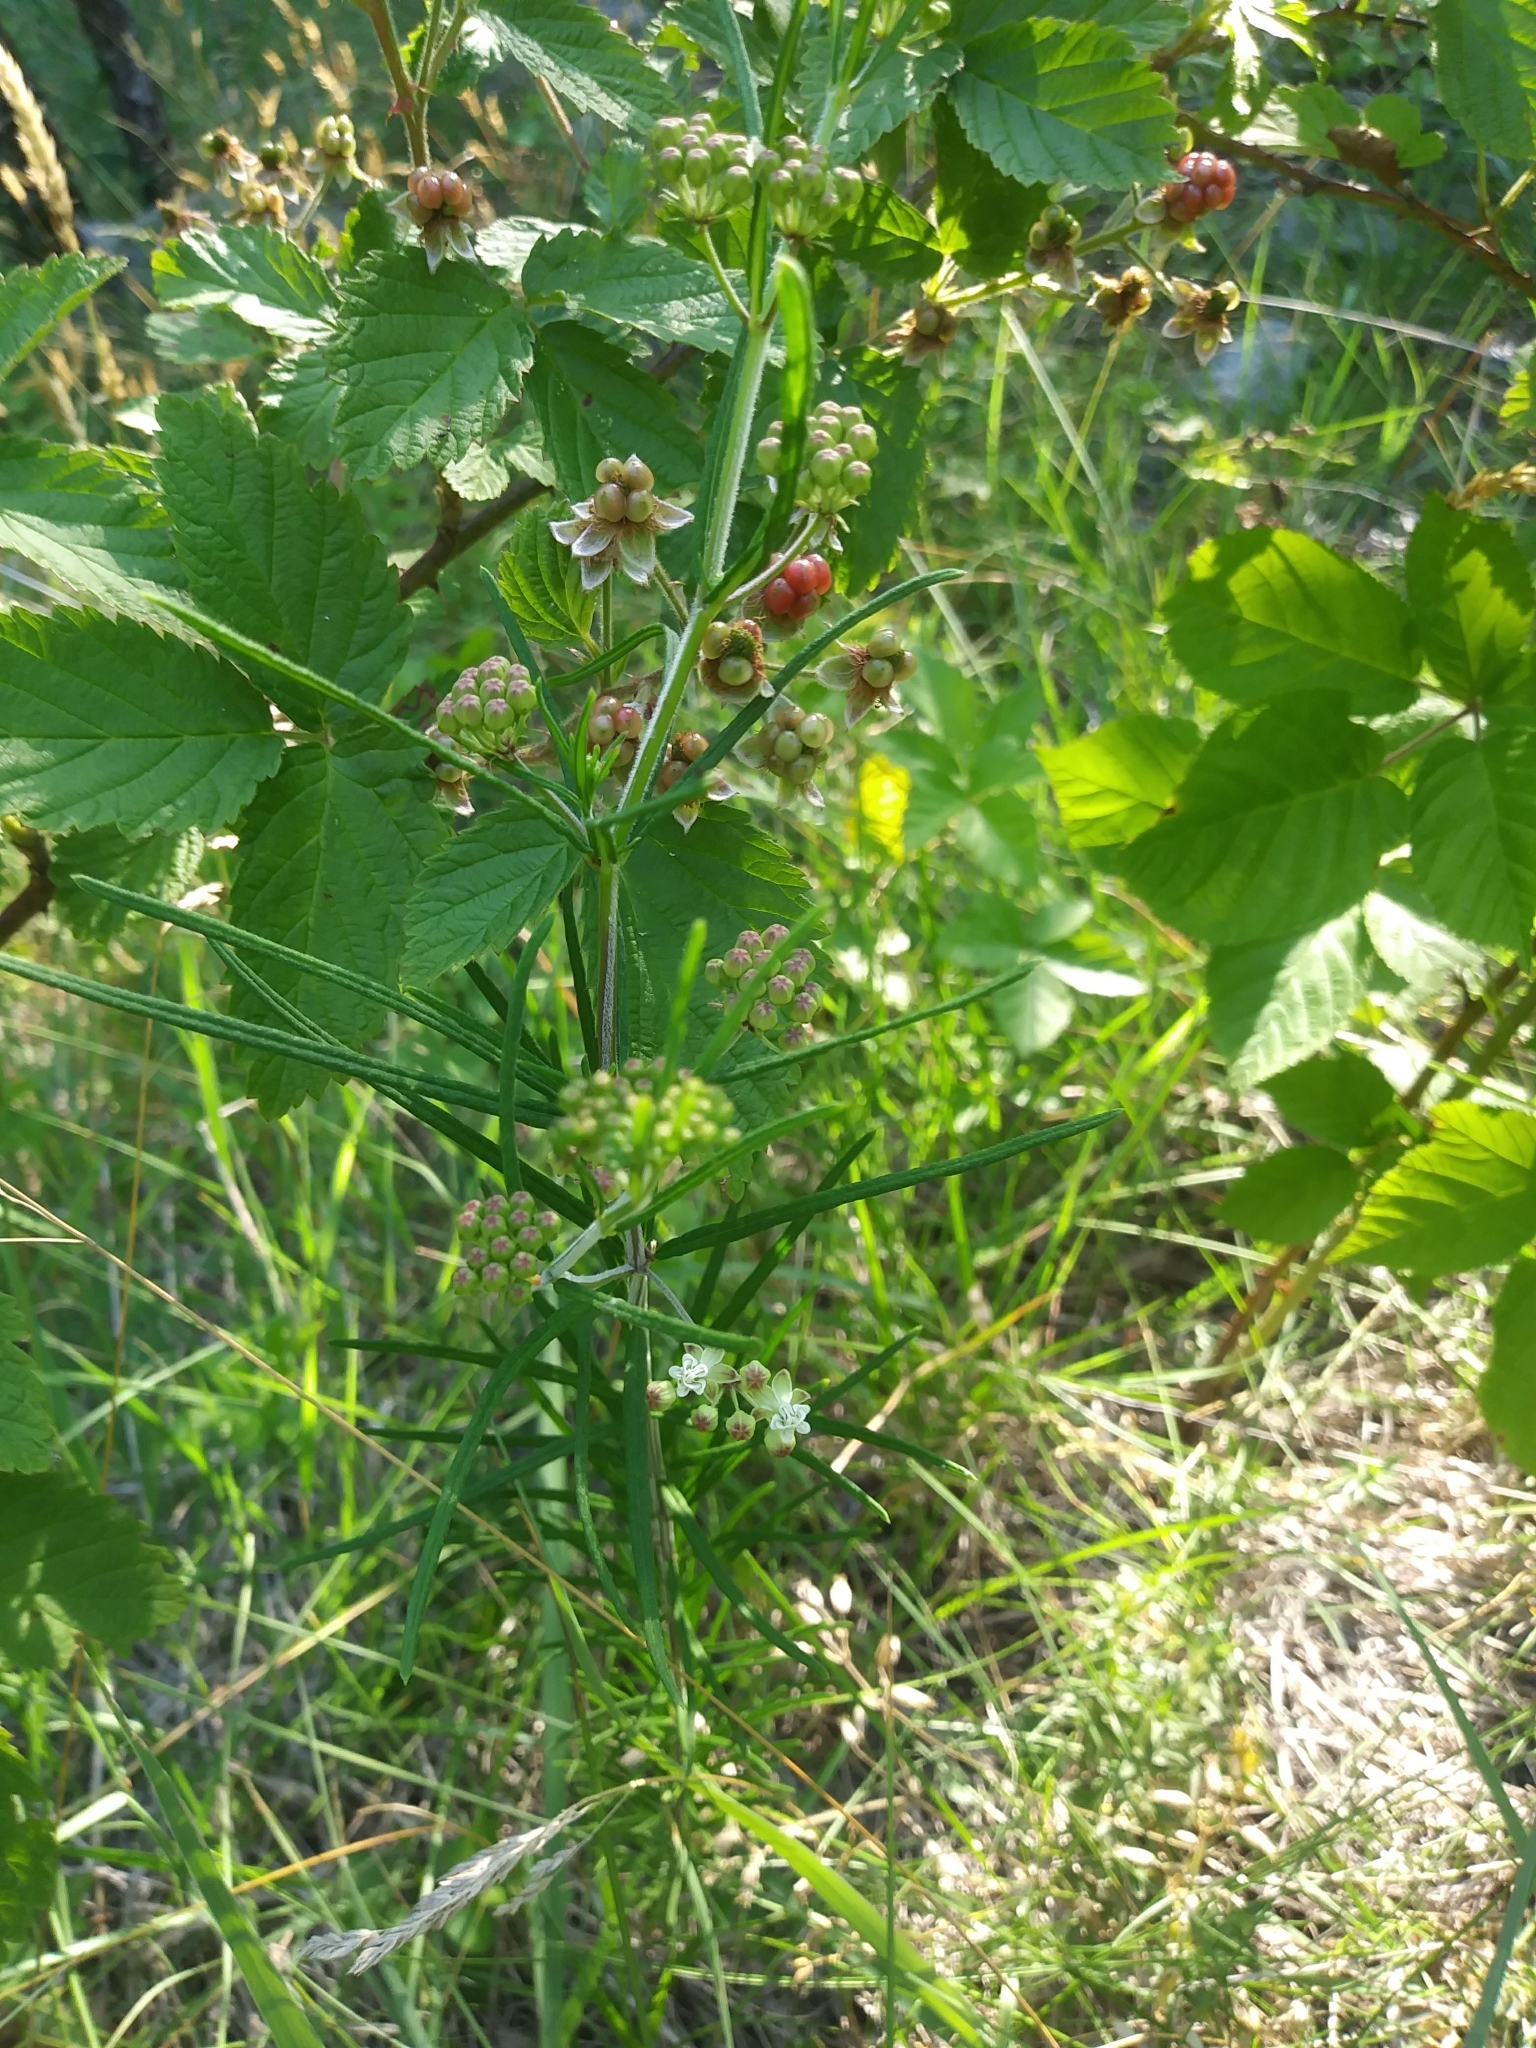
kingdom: Plantae
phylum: Tracheophyta
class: Magnoliopsida
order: Gentianales
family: Apocynaceae
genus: Asclepias
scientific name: Asclepias verticillata
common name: Eastern whorled milkweed
